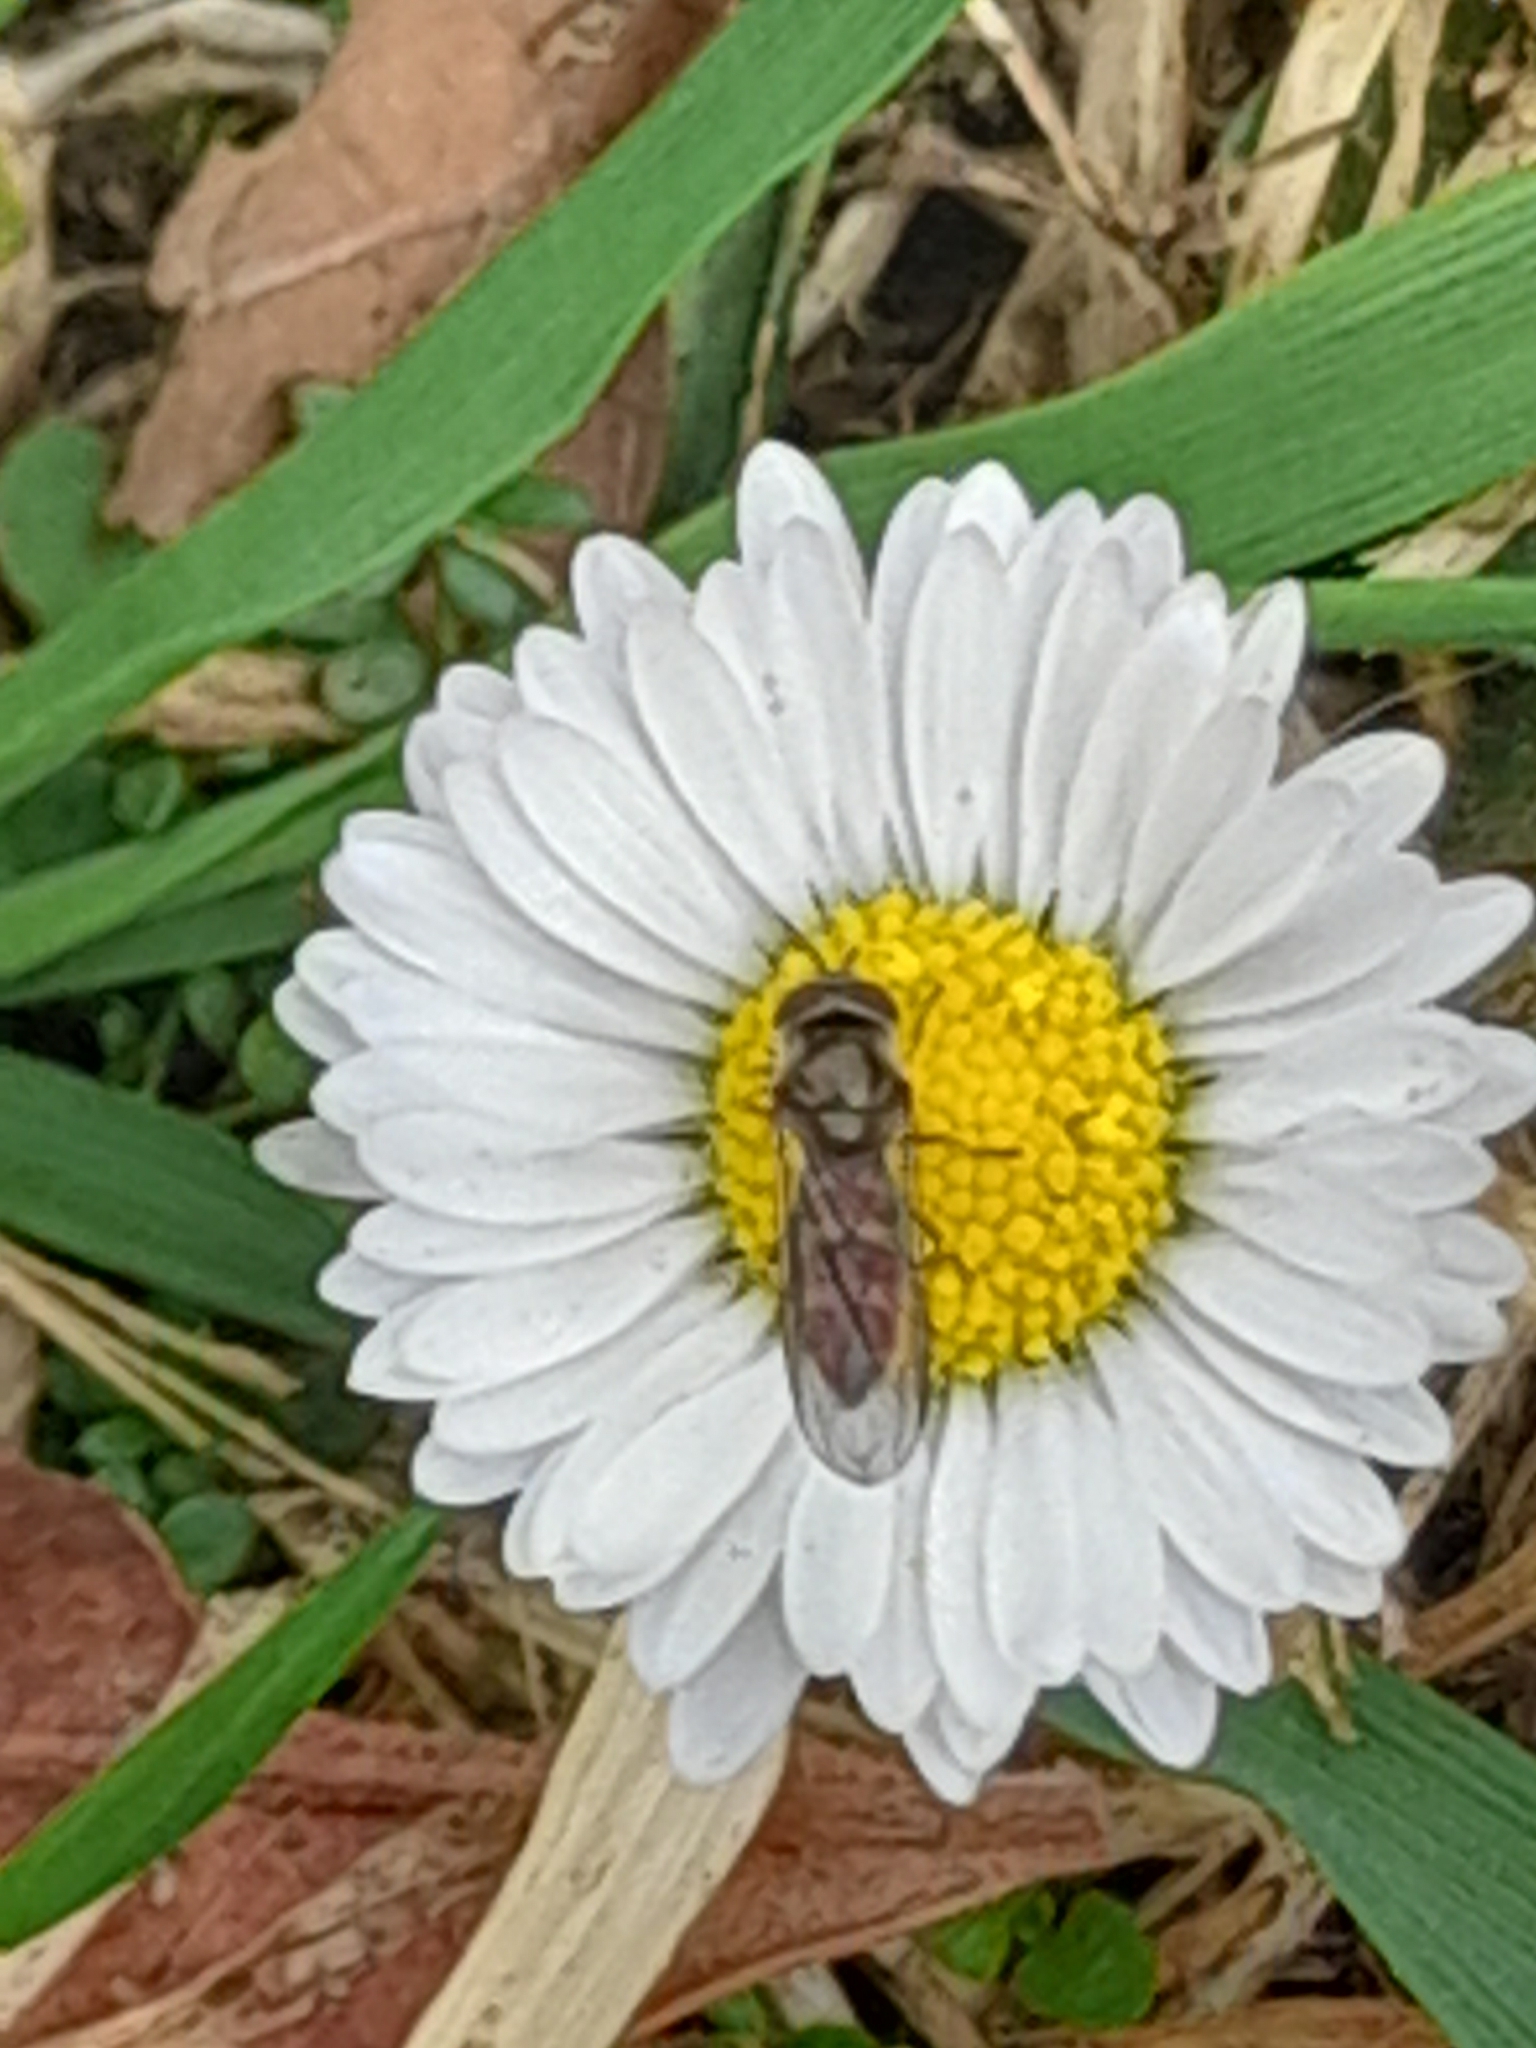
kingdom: Animalia
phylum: Arthropoda
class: Insecta
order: Diptera
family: Syrphidae
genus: Meliscaeva
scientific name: Meliscaeva auricollis
